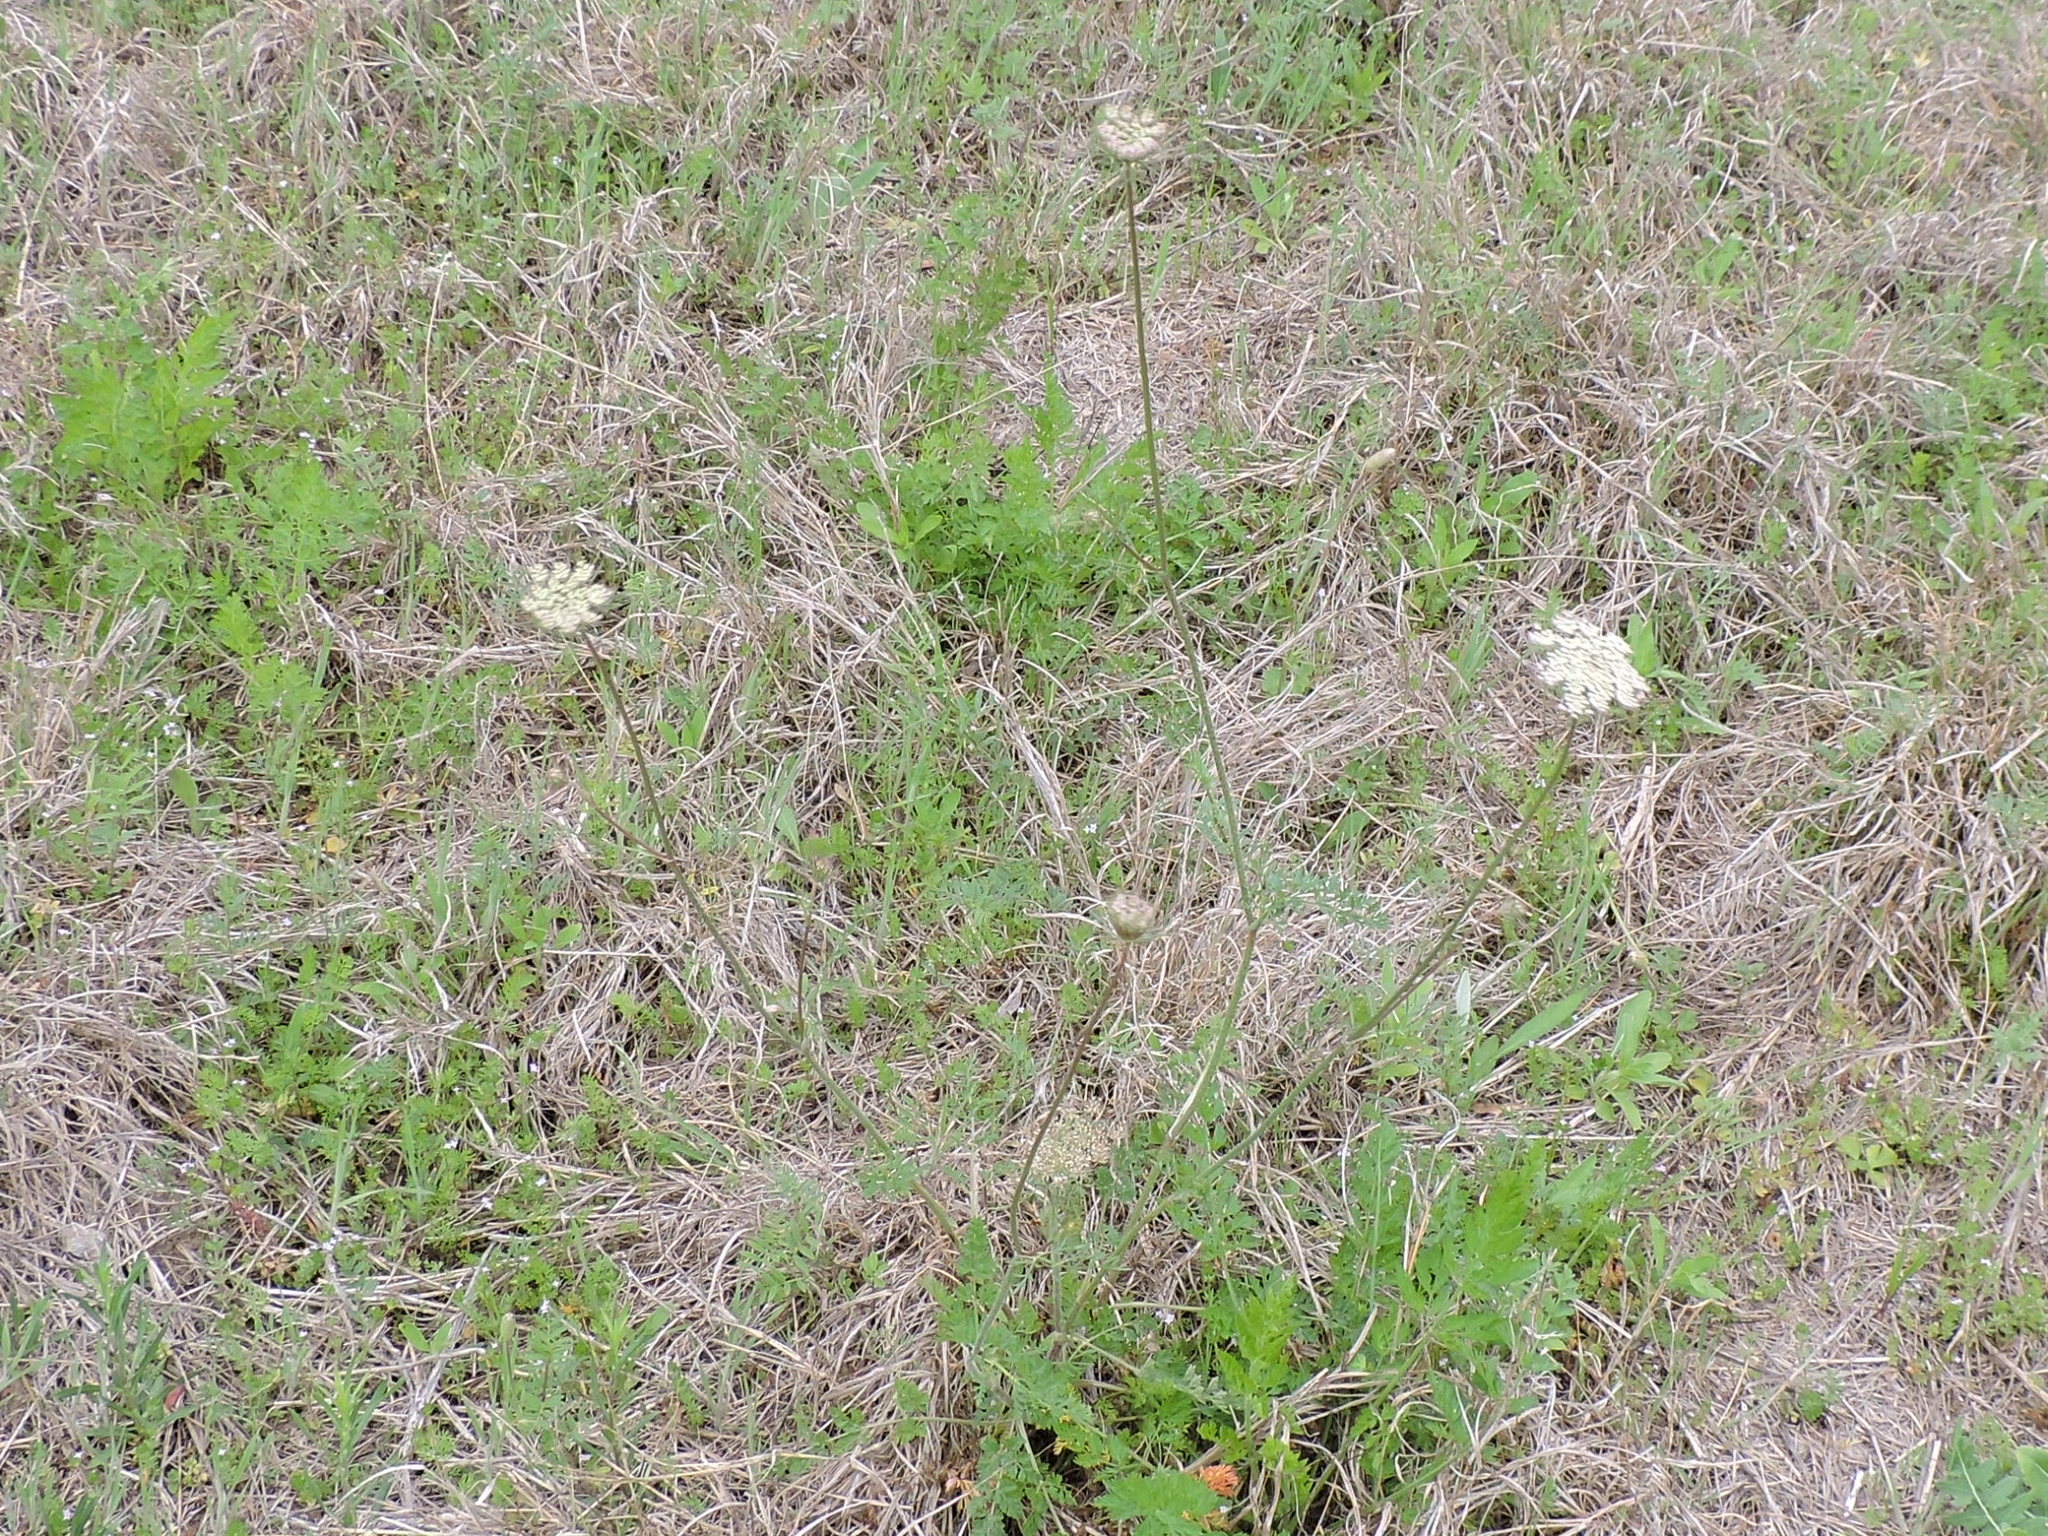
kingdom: Plantae
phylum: Tracheophyta
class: Magnoliopsida
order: Apiales
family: Apiaceae
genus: Daucus
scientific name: Daucus carota
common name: Wild carrot
